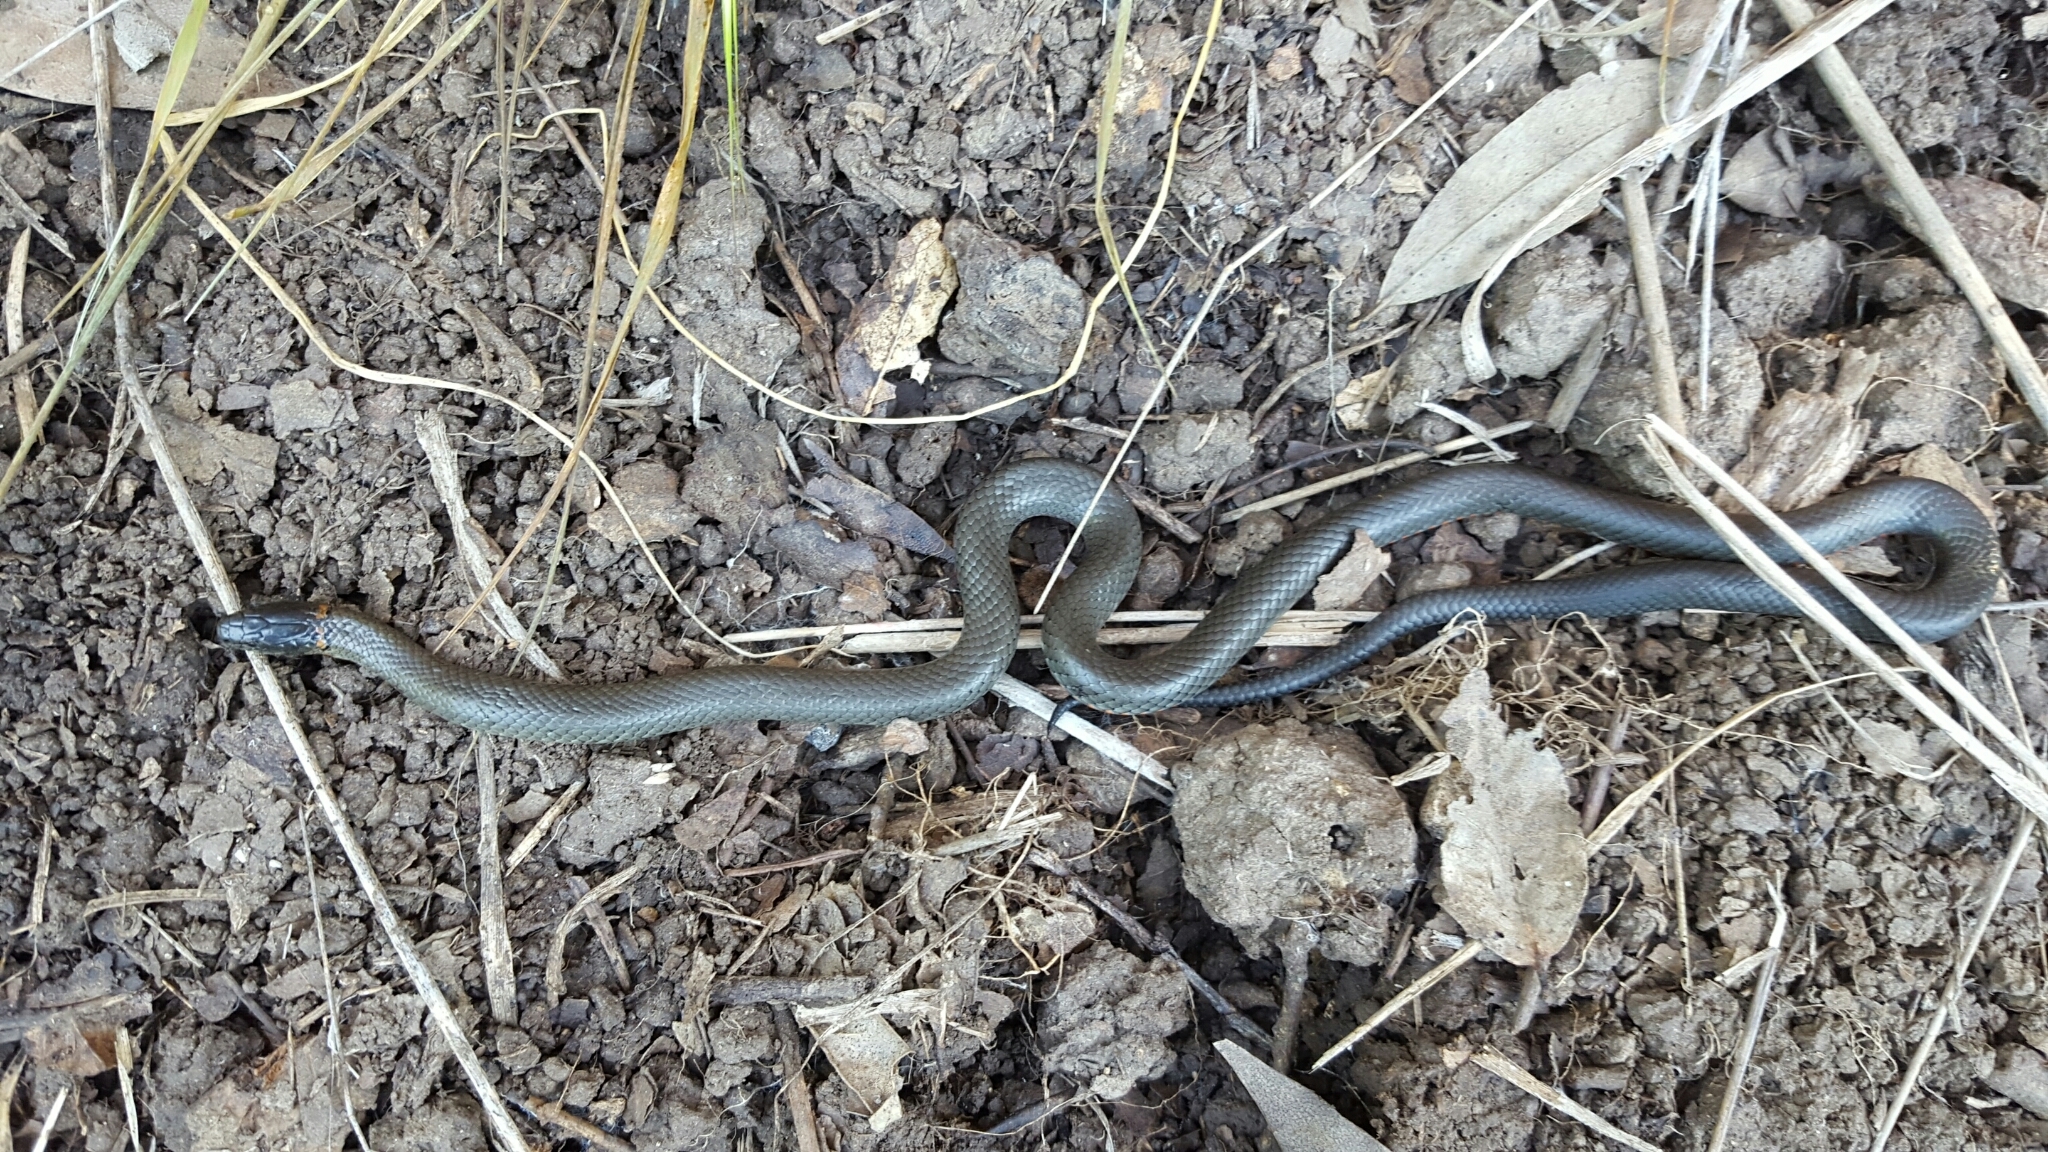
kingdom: Animalia
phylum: Chordata
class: Squamata
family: Colubridae
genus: Diadophis
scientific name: Diadophis punctatus
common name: Ringneck snake
